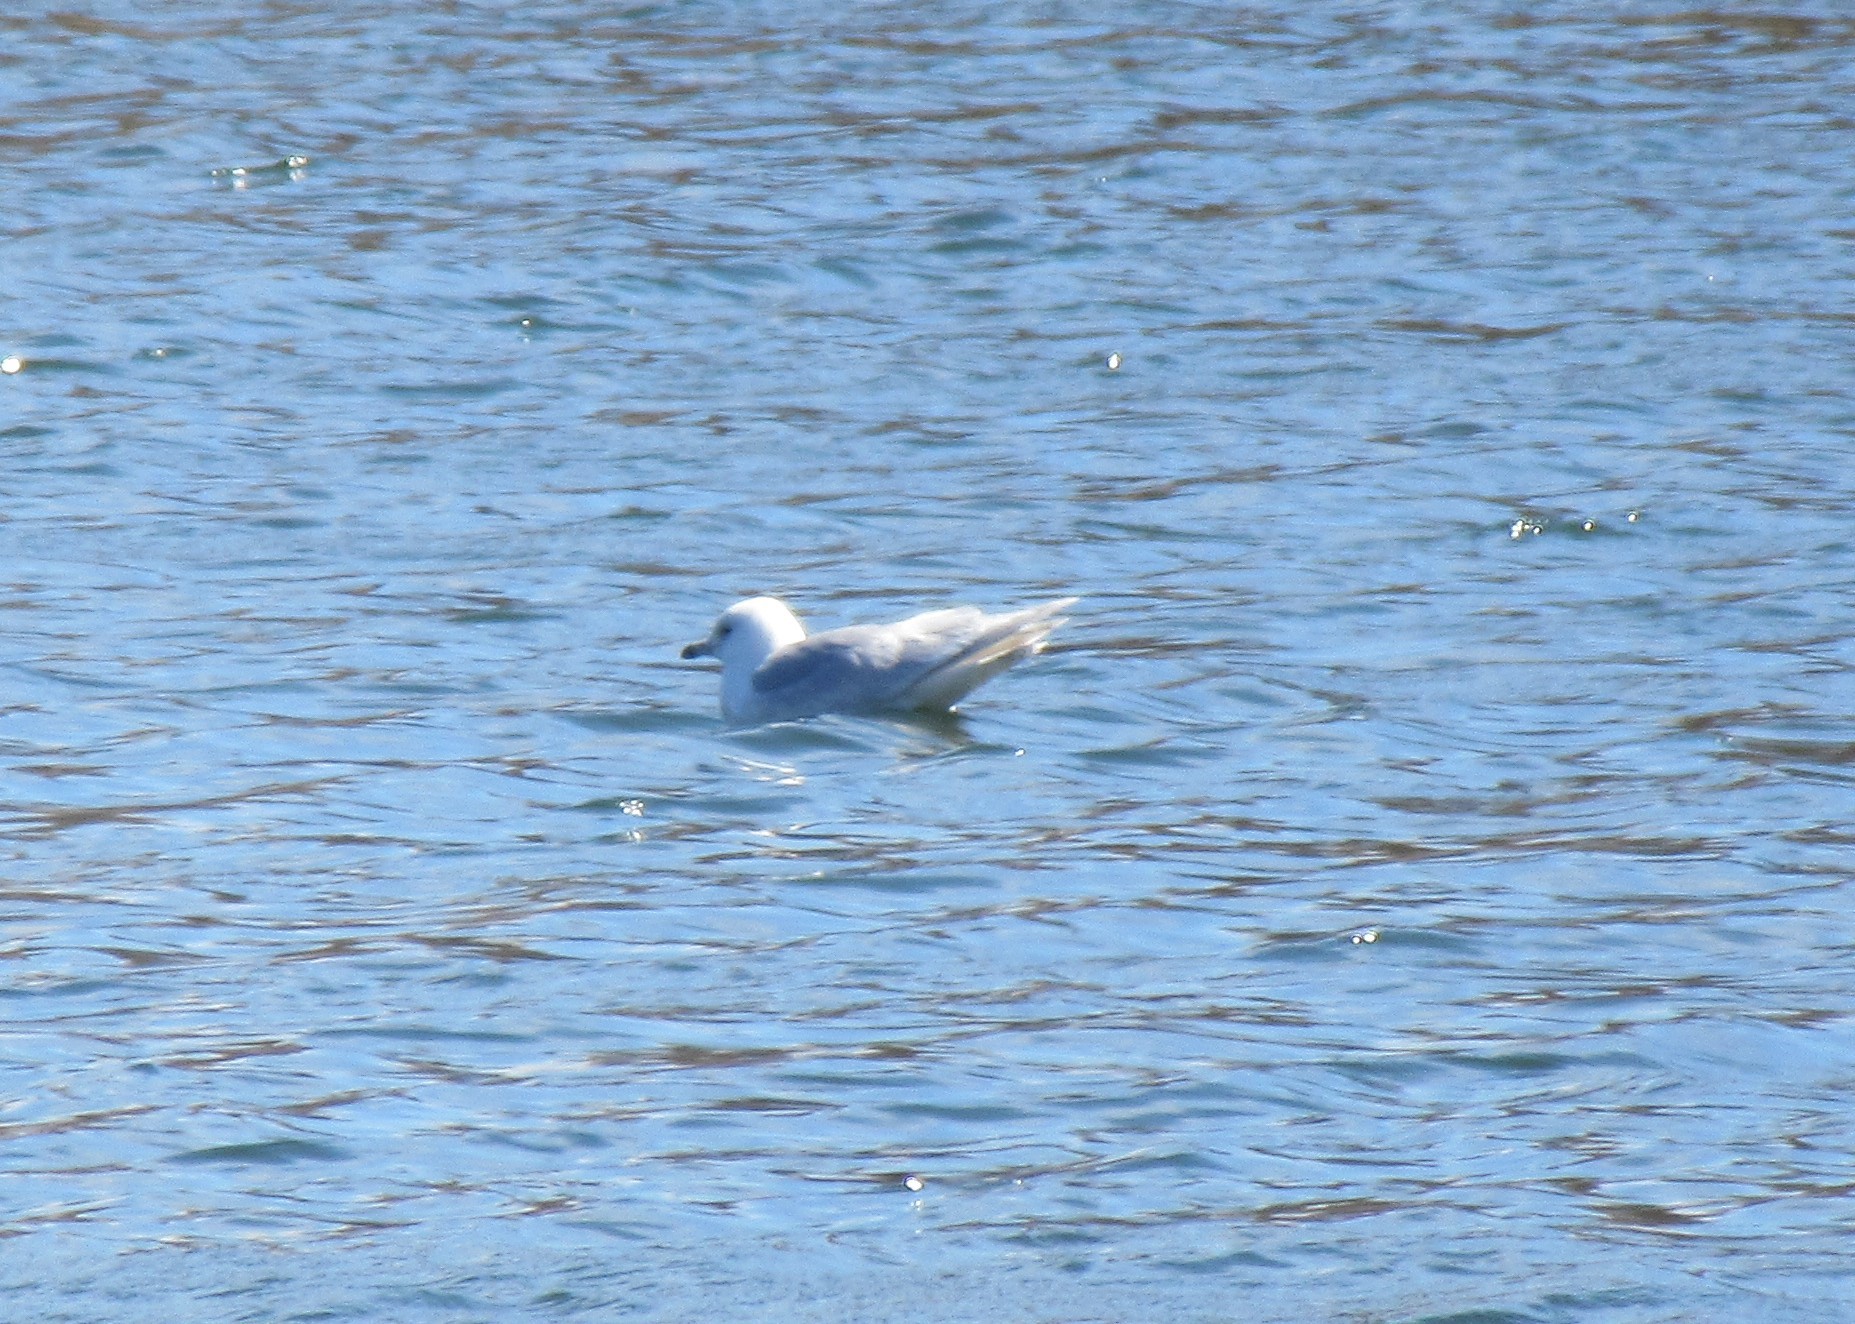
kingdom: Animalia
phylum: Chordata
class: Aves
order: Charadriiformes
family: Laridae
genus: Larus
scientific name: Larus glaucoides
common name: Iceland gull
